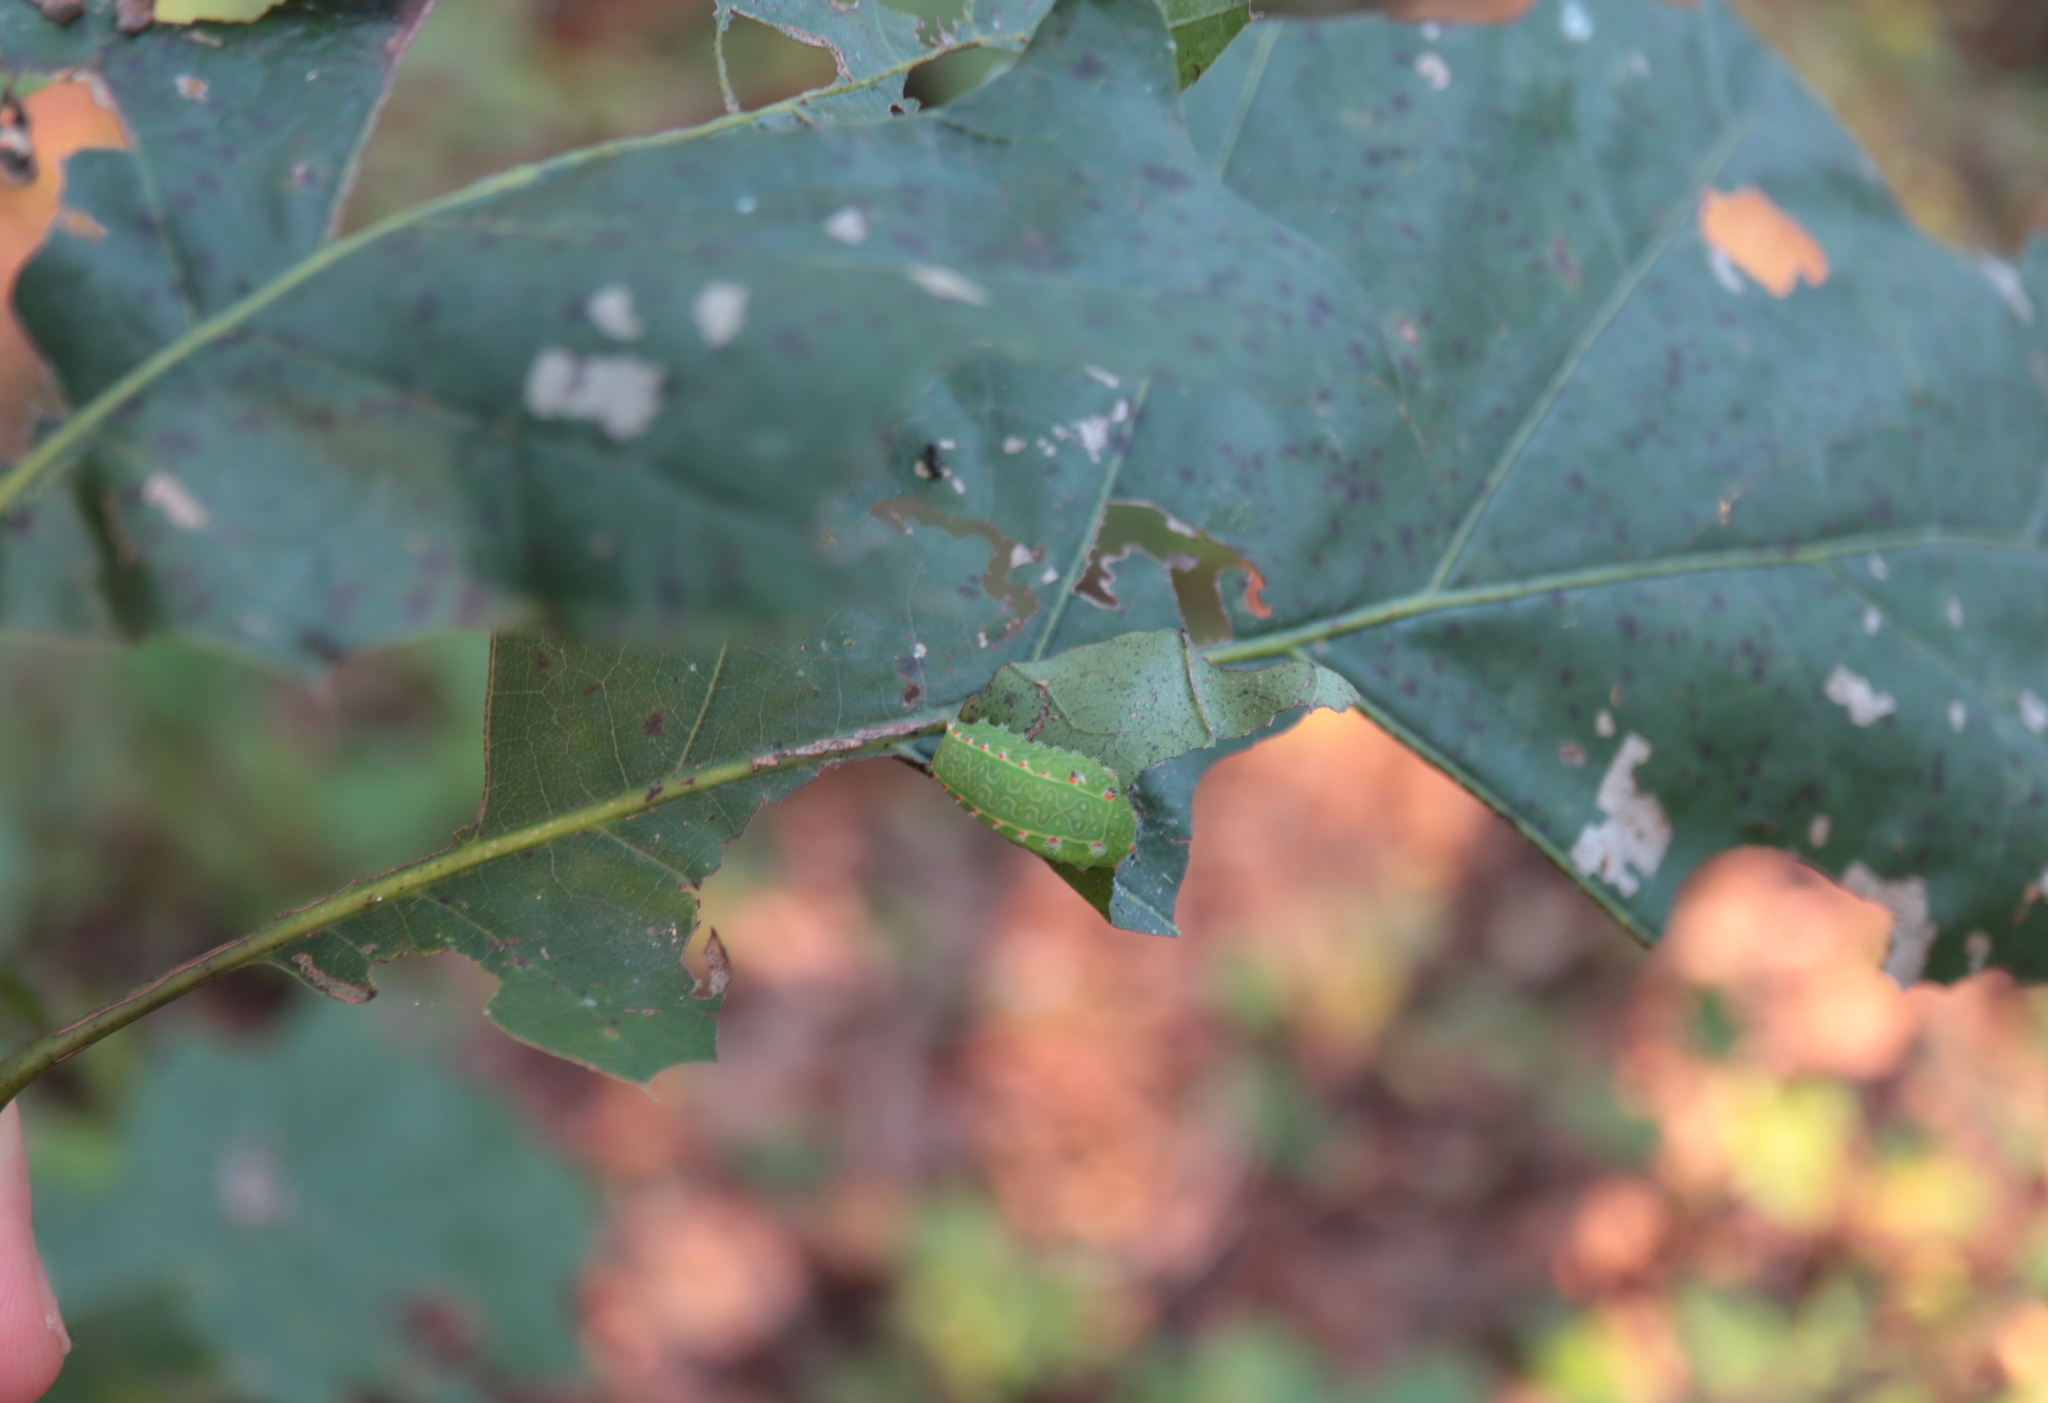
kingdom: Animalia
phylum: Arthropoda
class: Insecta
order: Lepidoptera
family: Limacodidae
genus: Natada
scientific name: Natada nasoni
